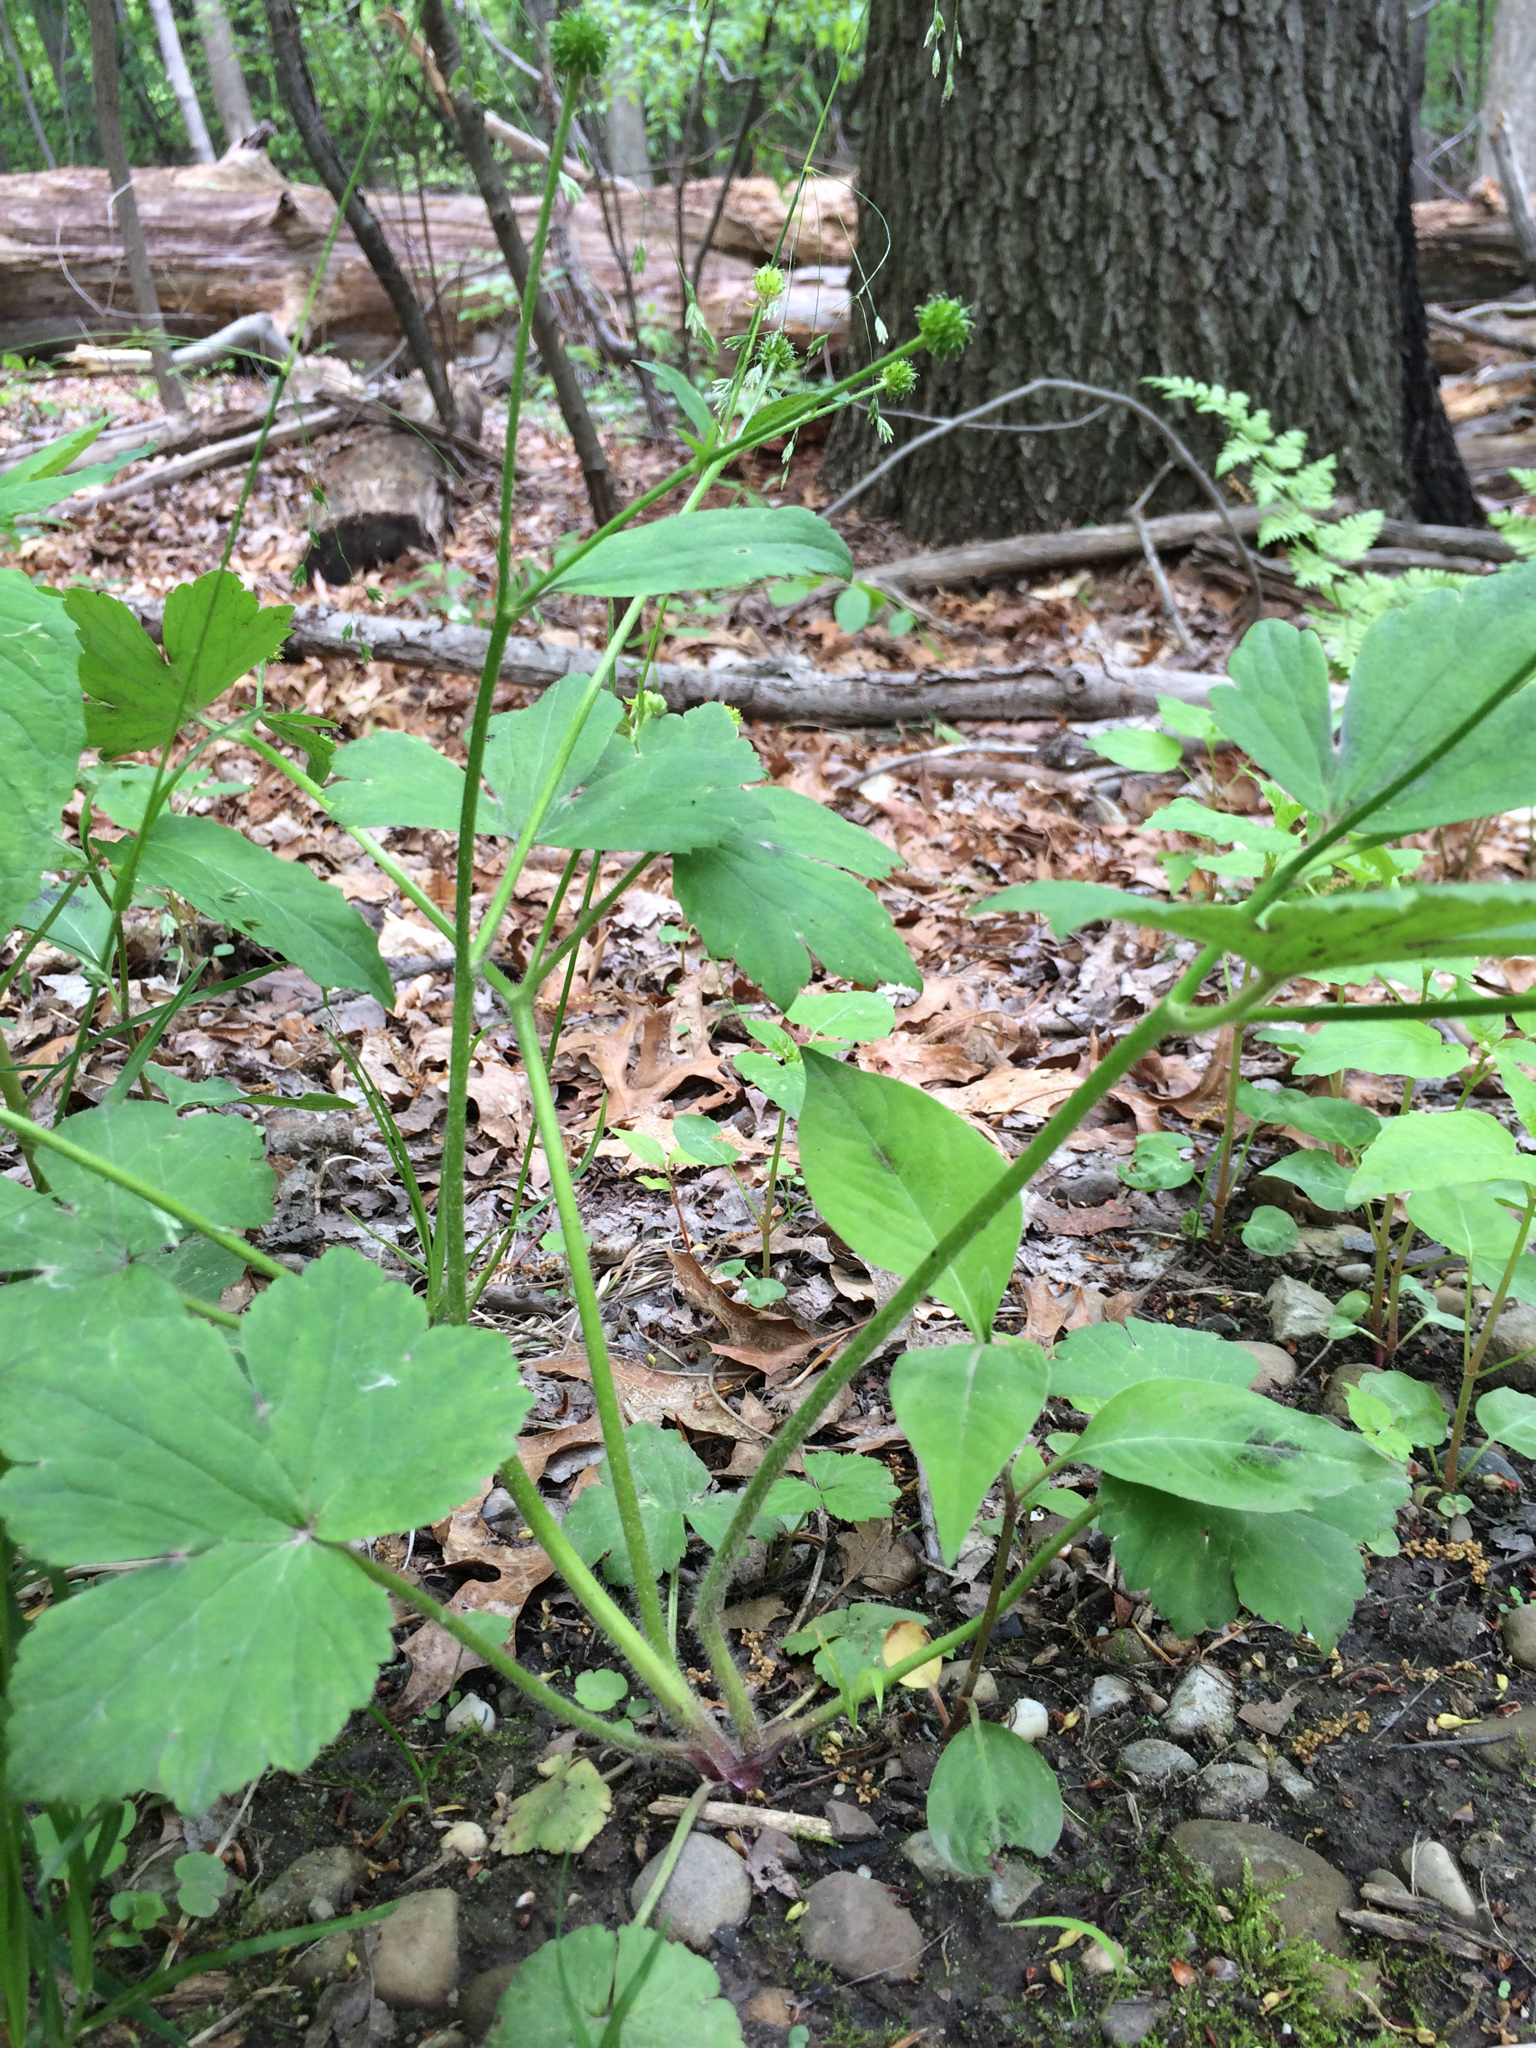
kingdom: Plantae
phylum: Tracheophyta
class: Magnoliopsida
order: Ranunculales
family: Ranunculaceae
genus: Ranunculus
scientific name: Ranunculus recurvatus
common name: Blisterwort
